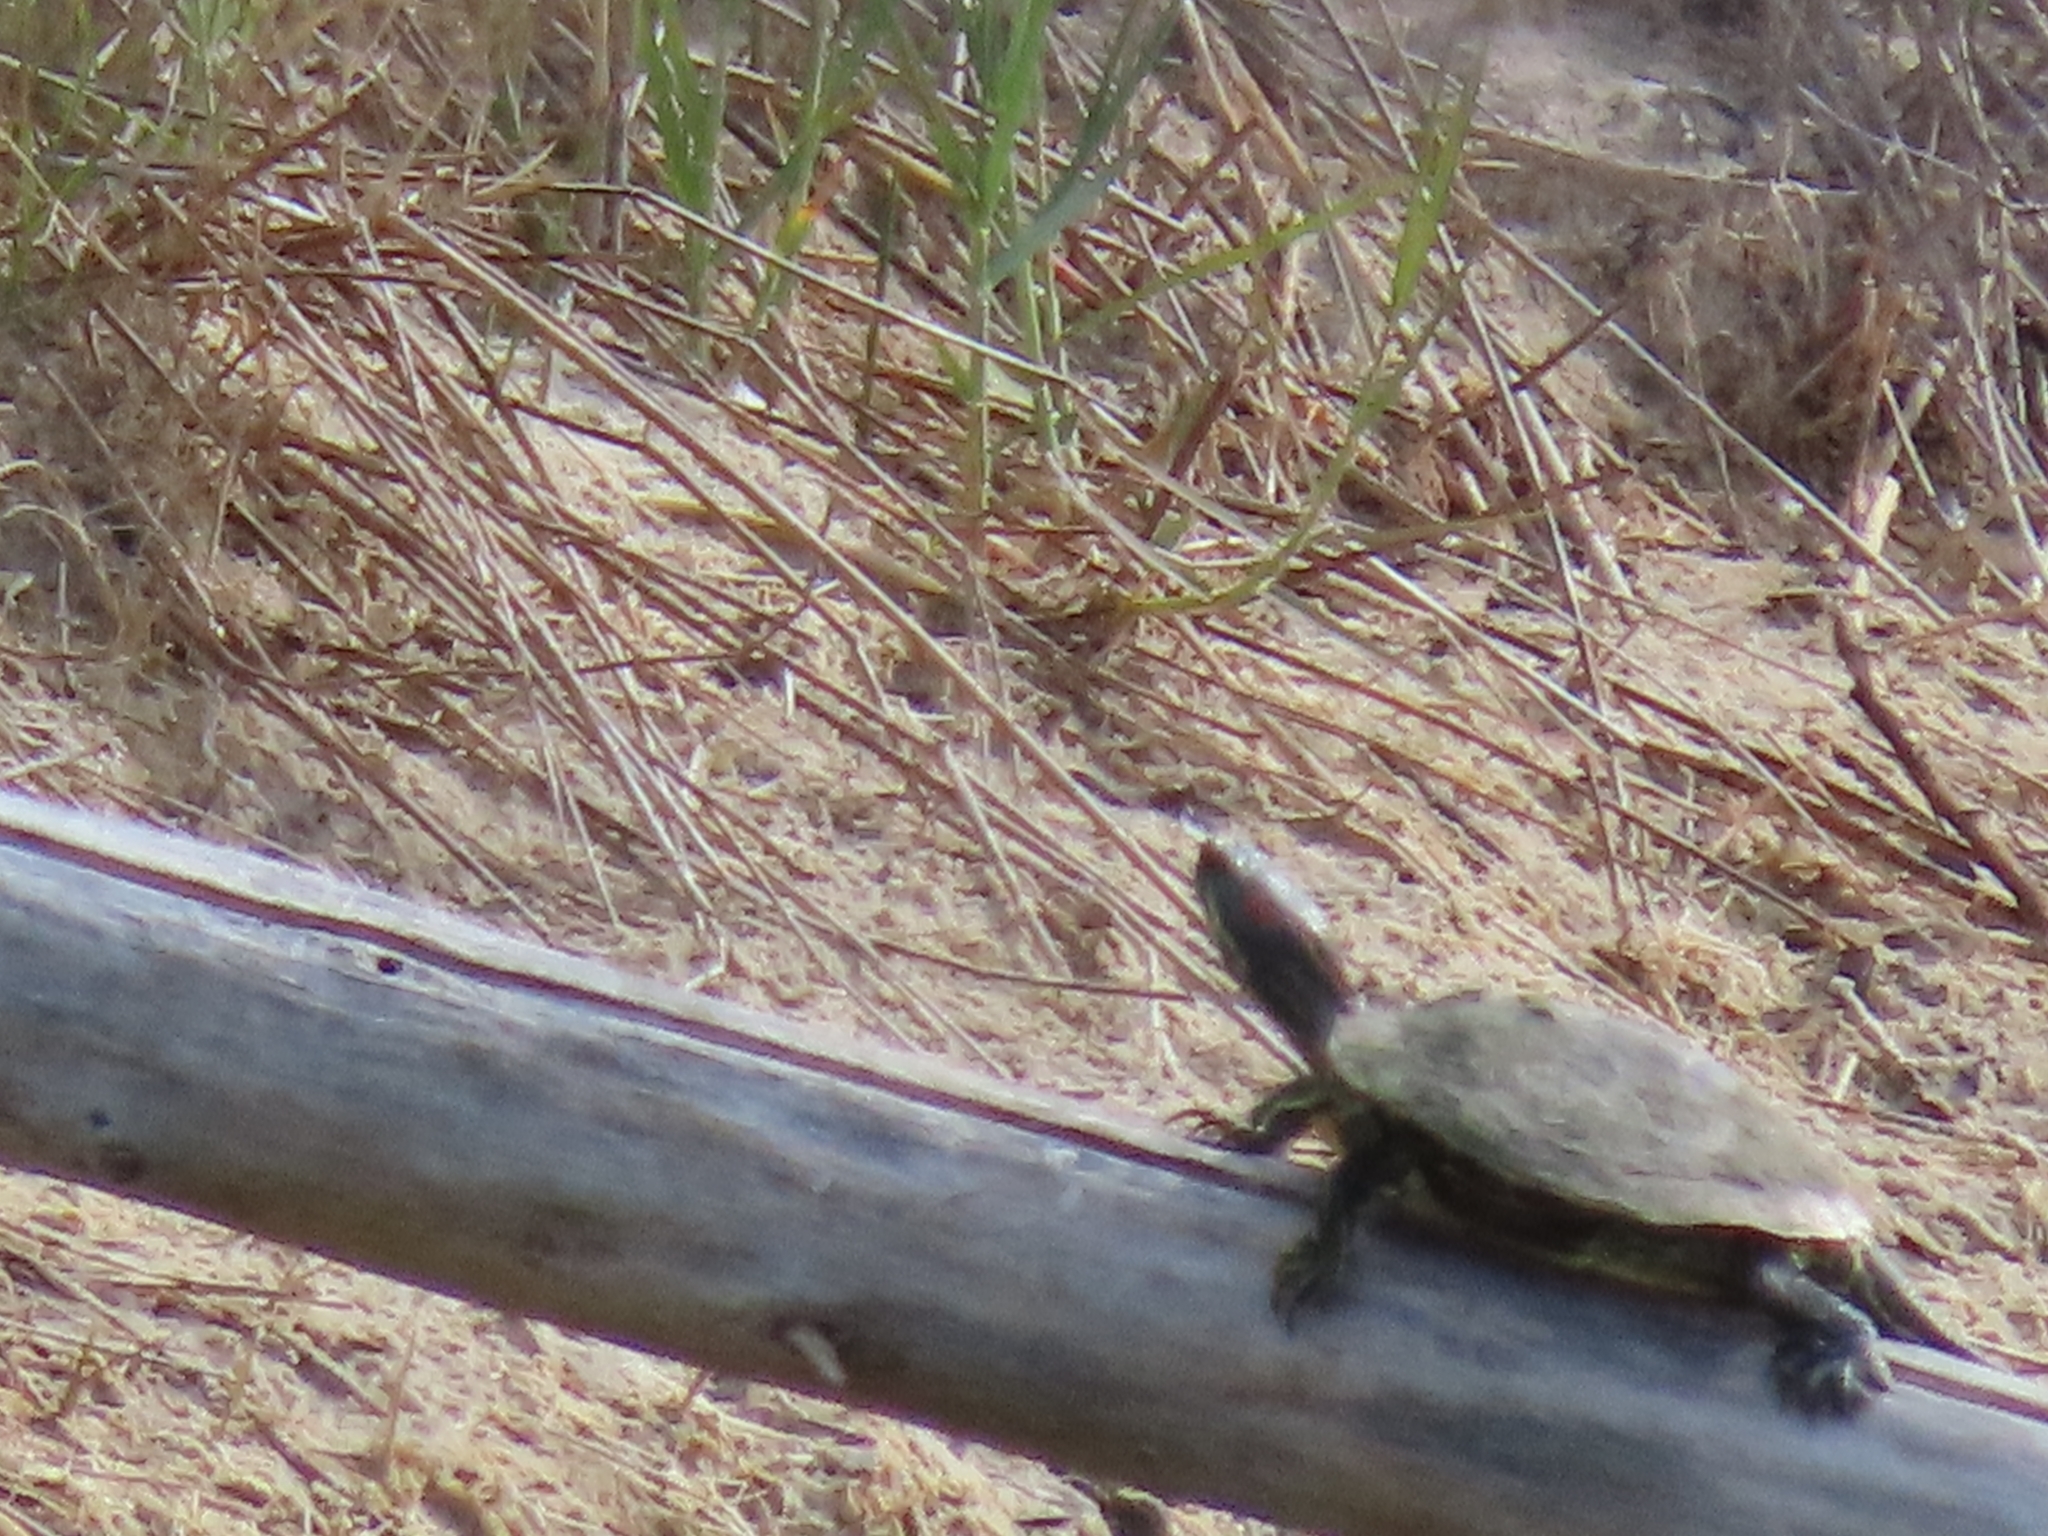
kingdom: Animalia
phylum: Chordata
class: Testudines
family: Emydidae
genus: Trachemys
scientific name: Trachemys scripta
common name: Slider
